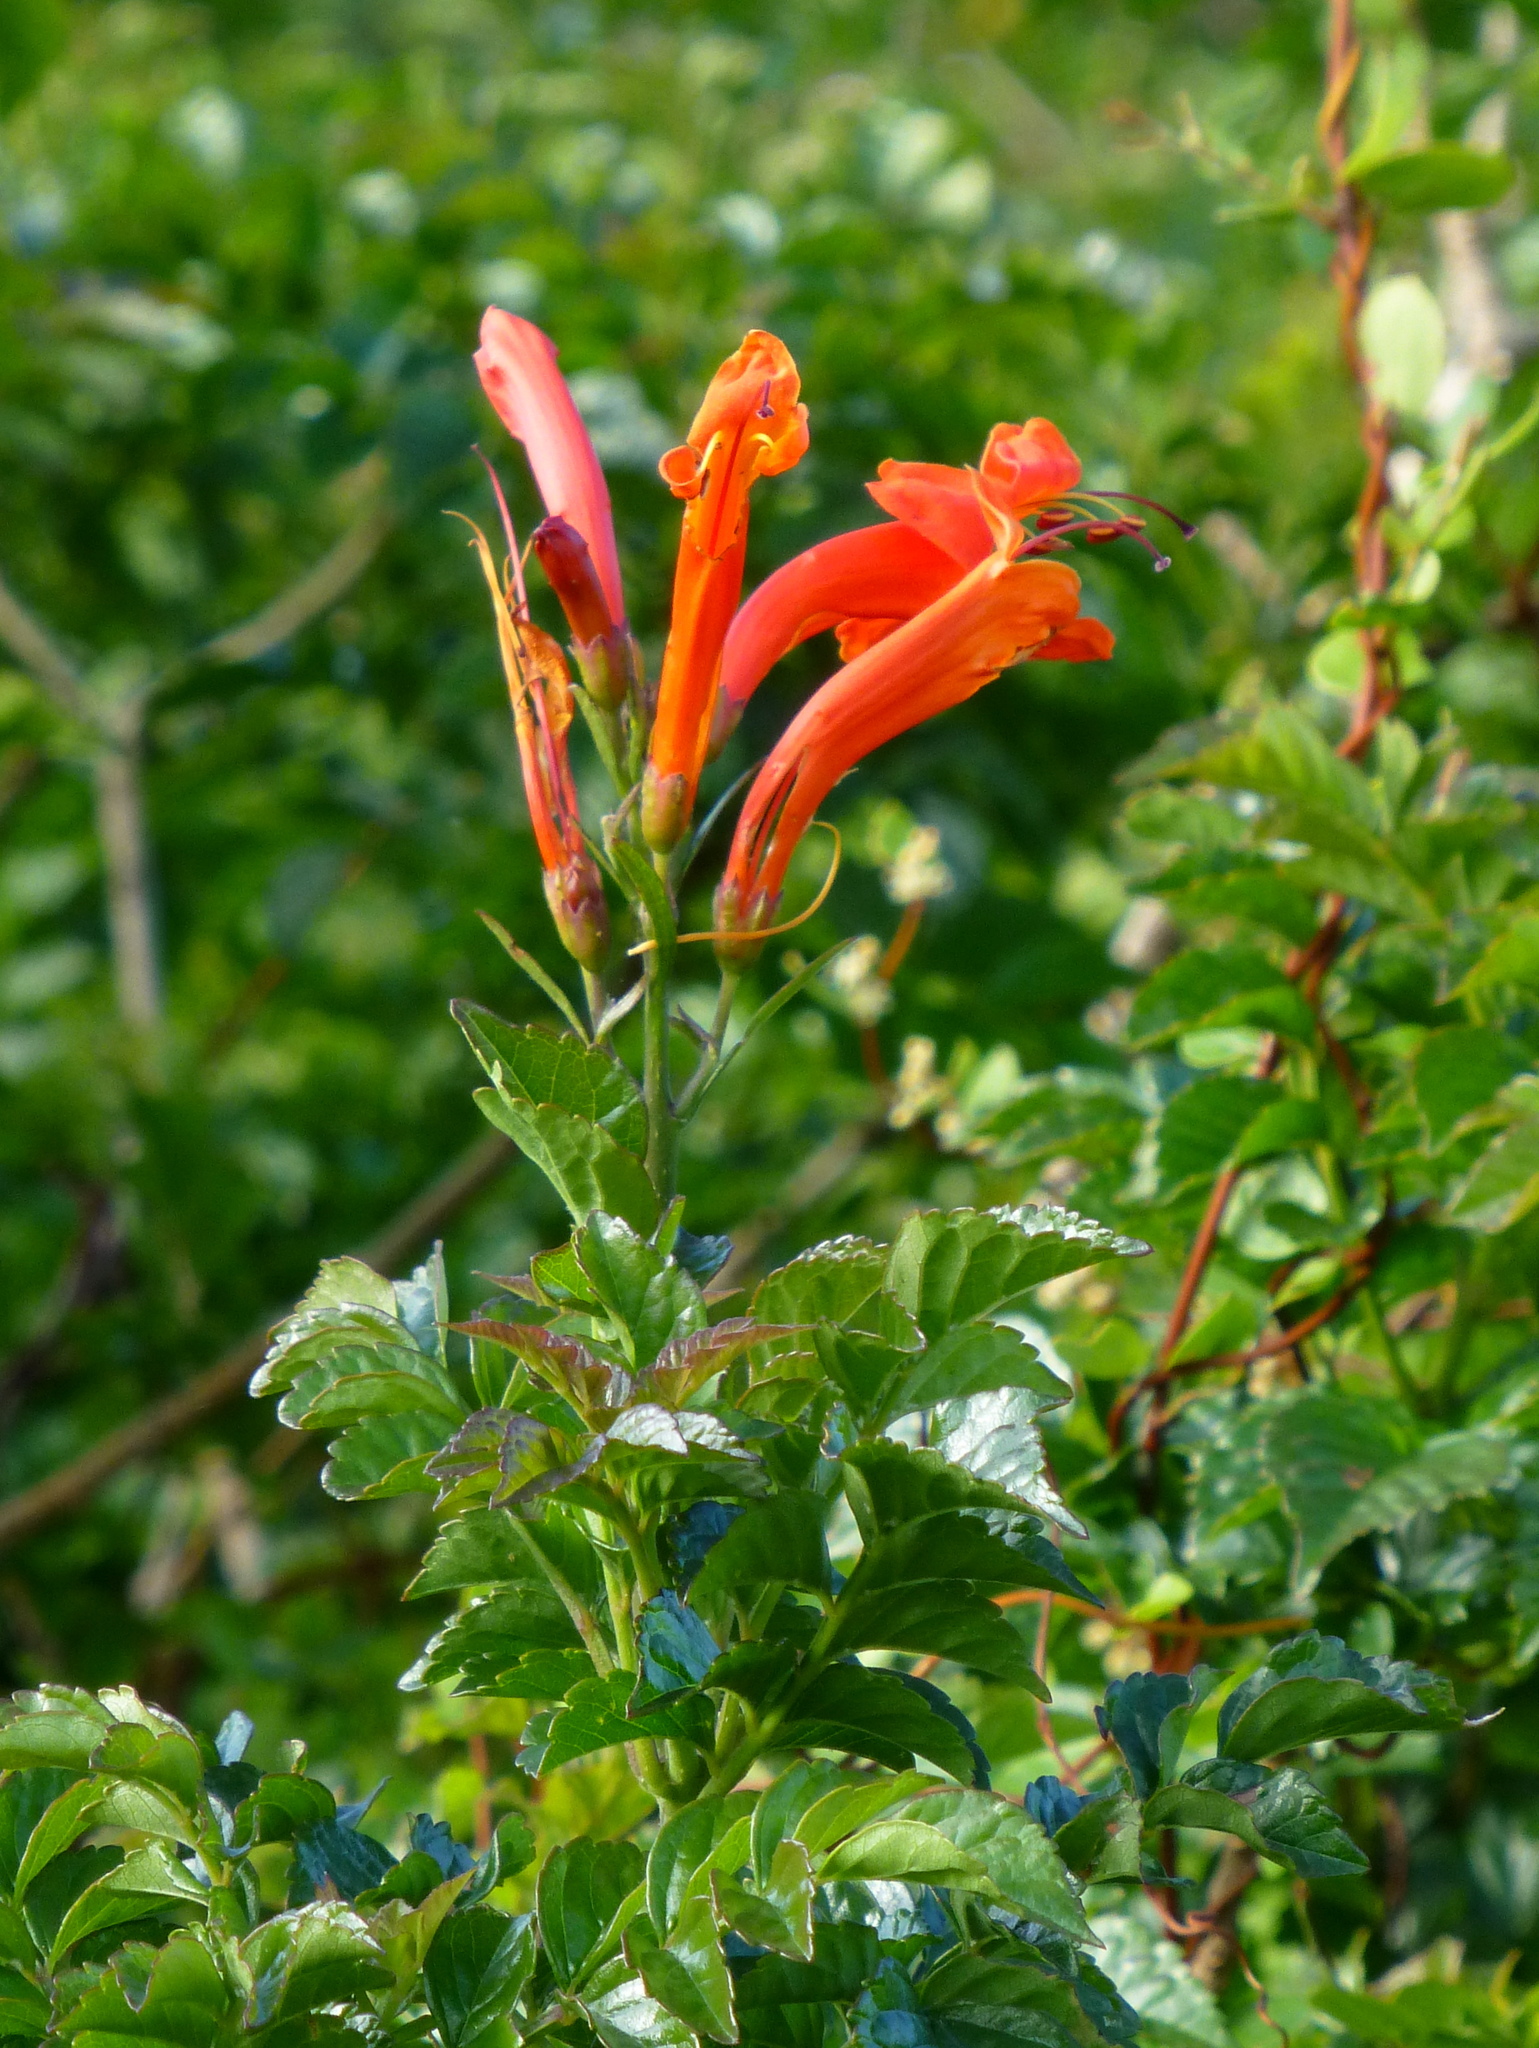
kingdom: Plantae
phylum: Tracheophyta
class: Magnoliopsida
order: Lamiales
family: Bignoniaceae
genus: Tecomaria
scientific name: Tecomaria capensis
